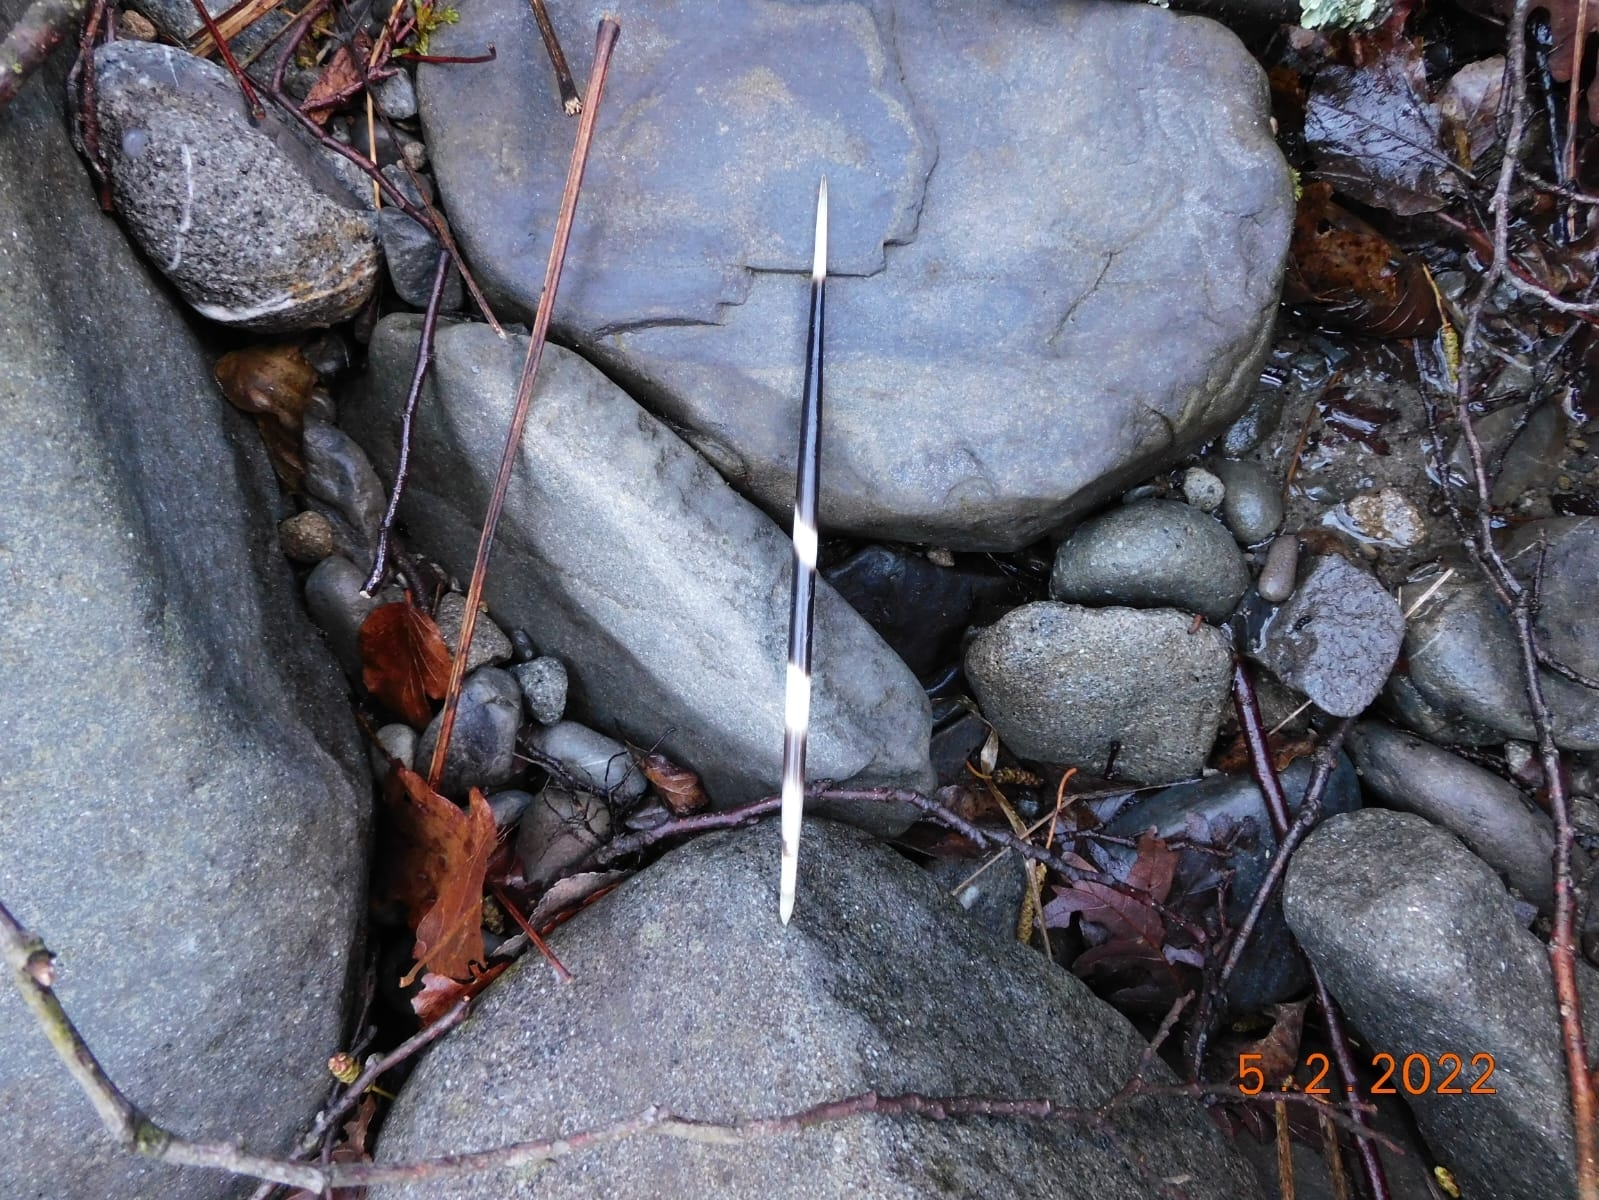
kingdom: Animalia
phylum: Chordata
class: Mammalia
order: Rodentia
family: Hystricidae
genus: Hystrix
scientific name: Hystrix cristata
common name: Crested porcupine
